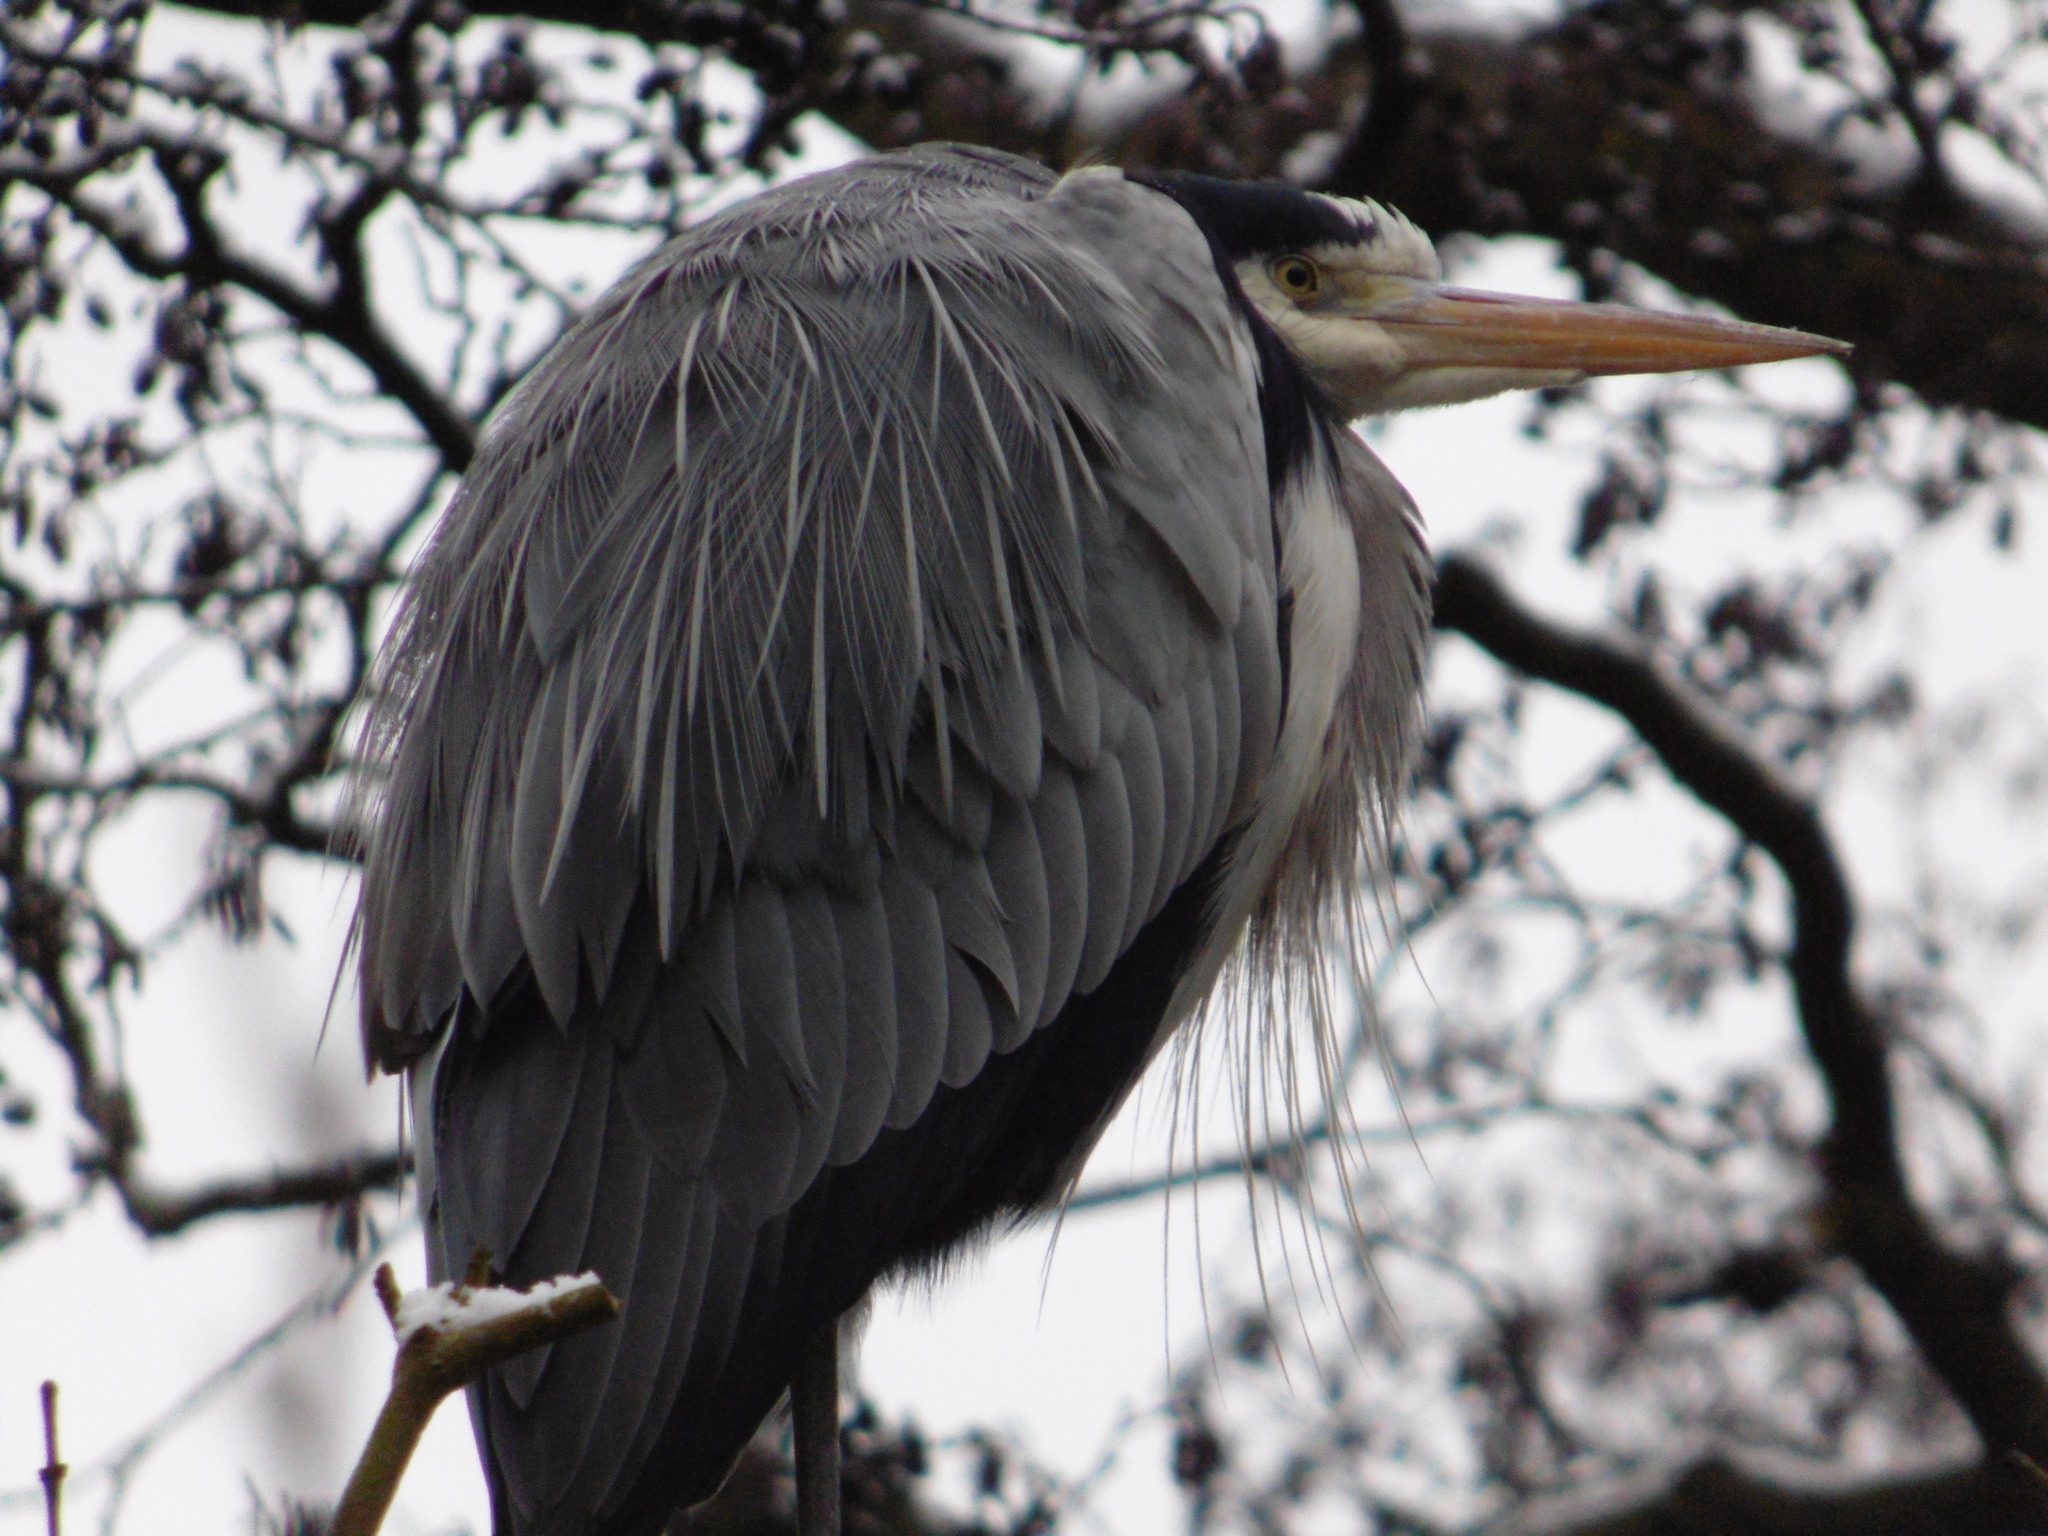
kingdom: Animalia
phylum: Chordata
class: Aves
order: Pelecaniformes
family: Ardeidae
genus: Ardea
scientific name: Ardea cinerea
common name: Grey heron
